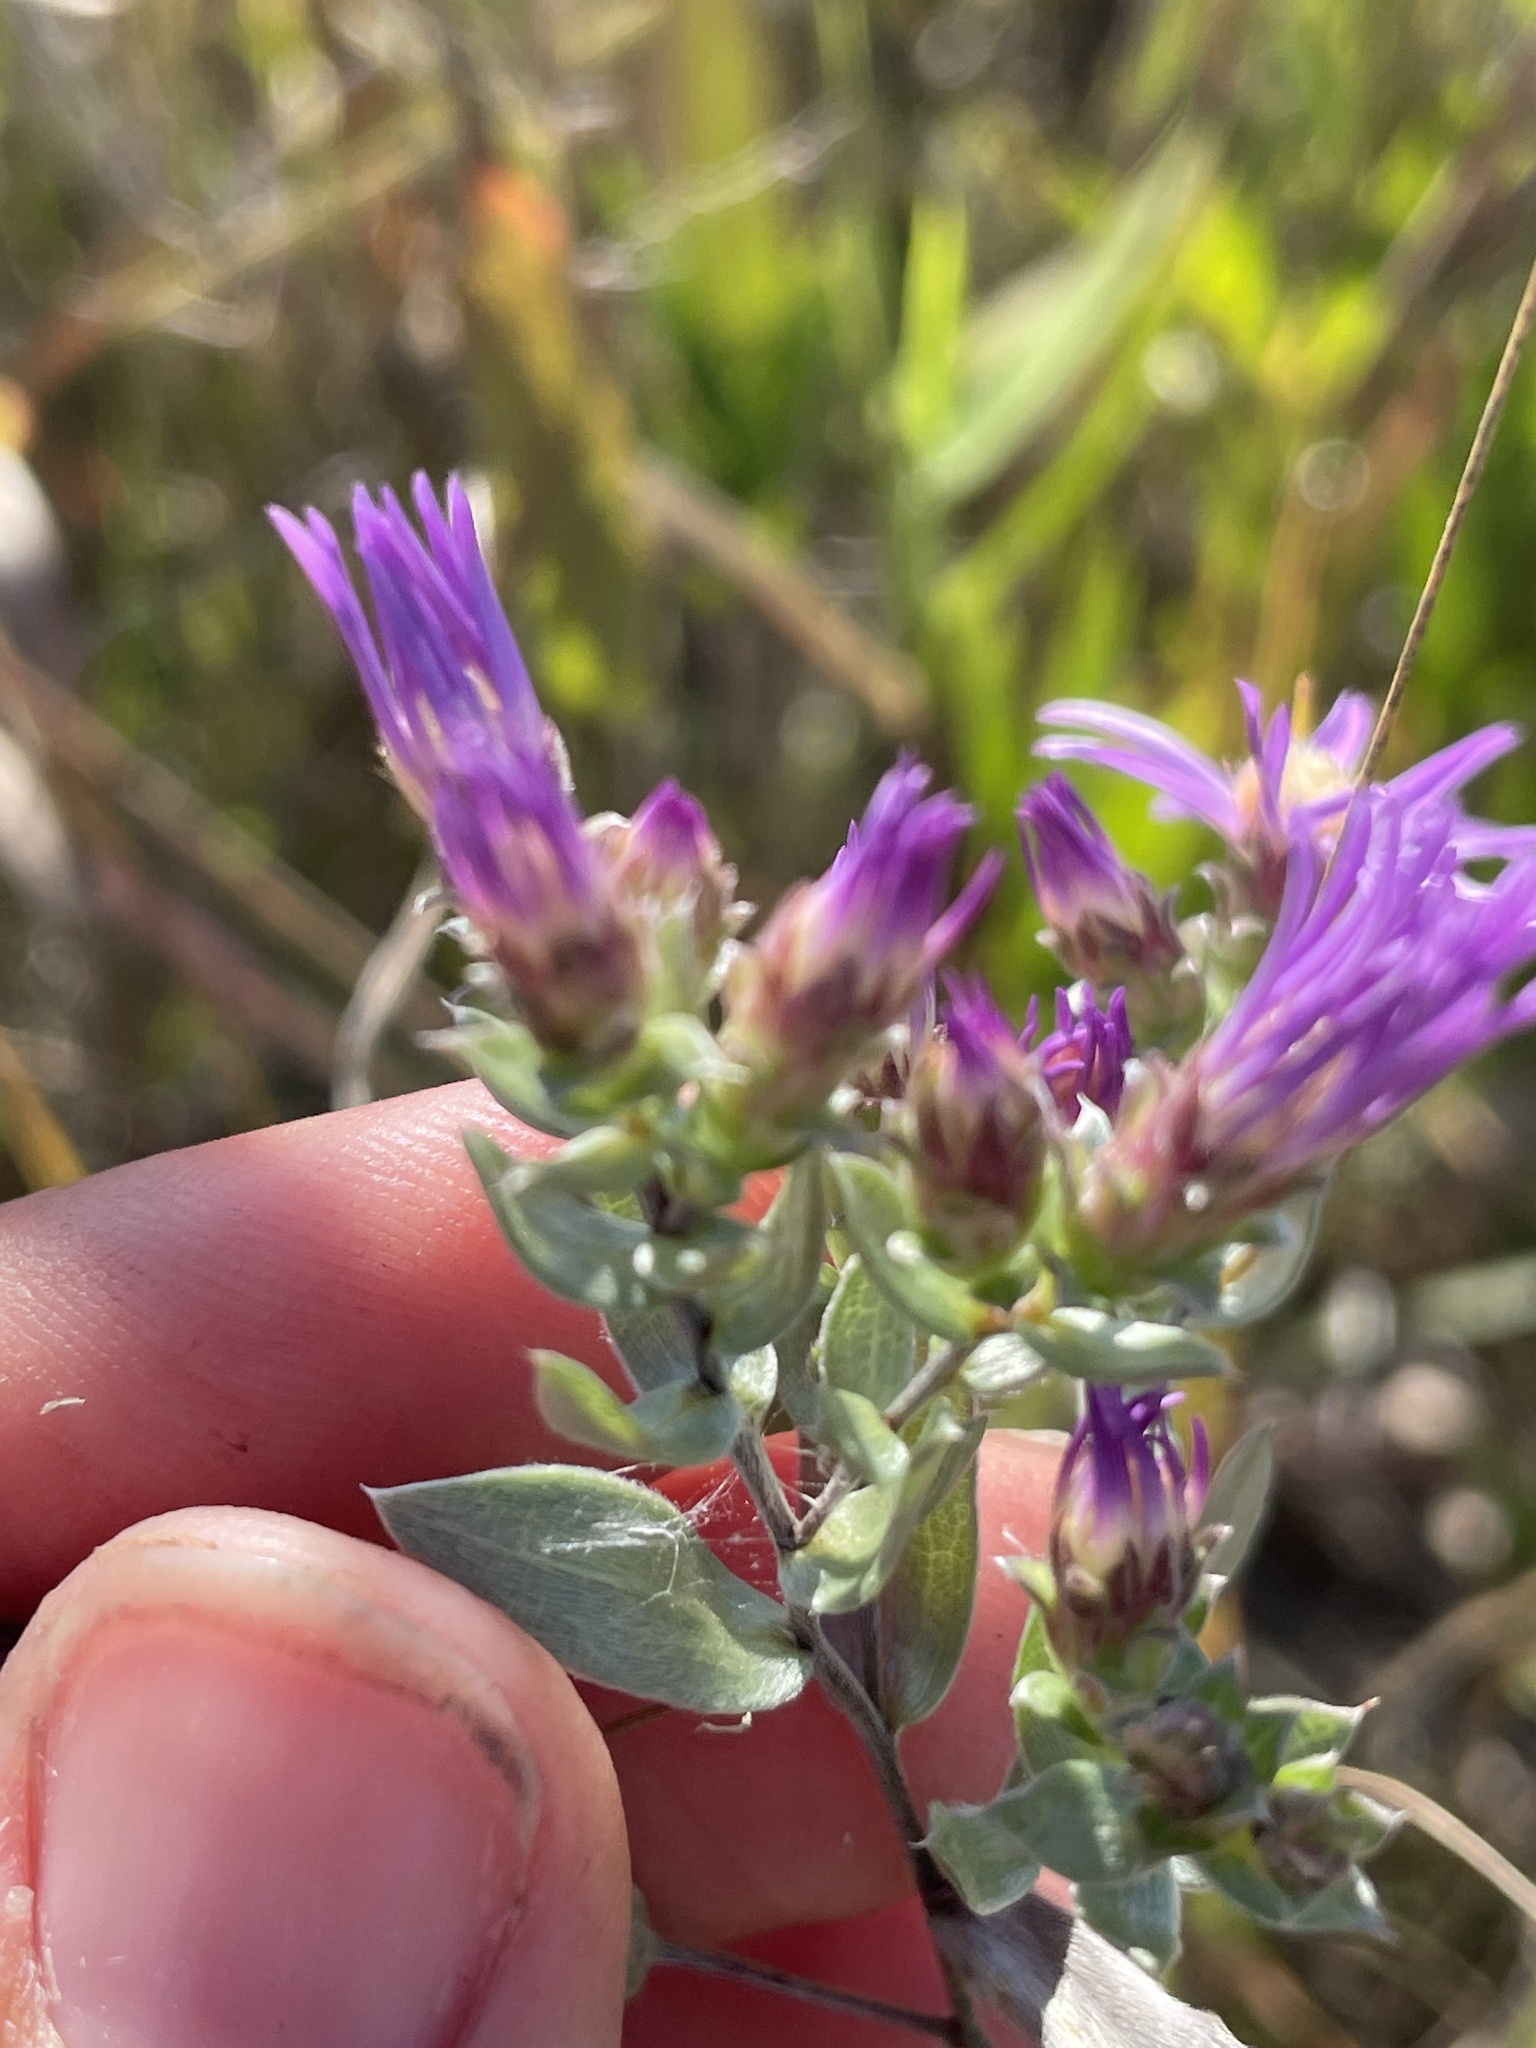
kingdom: Plantae
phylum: Tracheophyta
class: Magnoliopsida
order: Asterales
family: Asteraceae
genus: Symphyotrichum
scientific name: Symphyotrichum sericeum
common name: Silky aster
